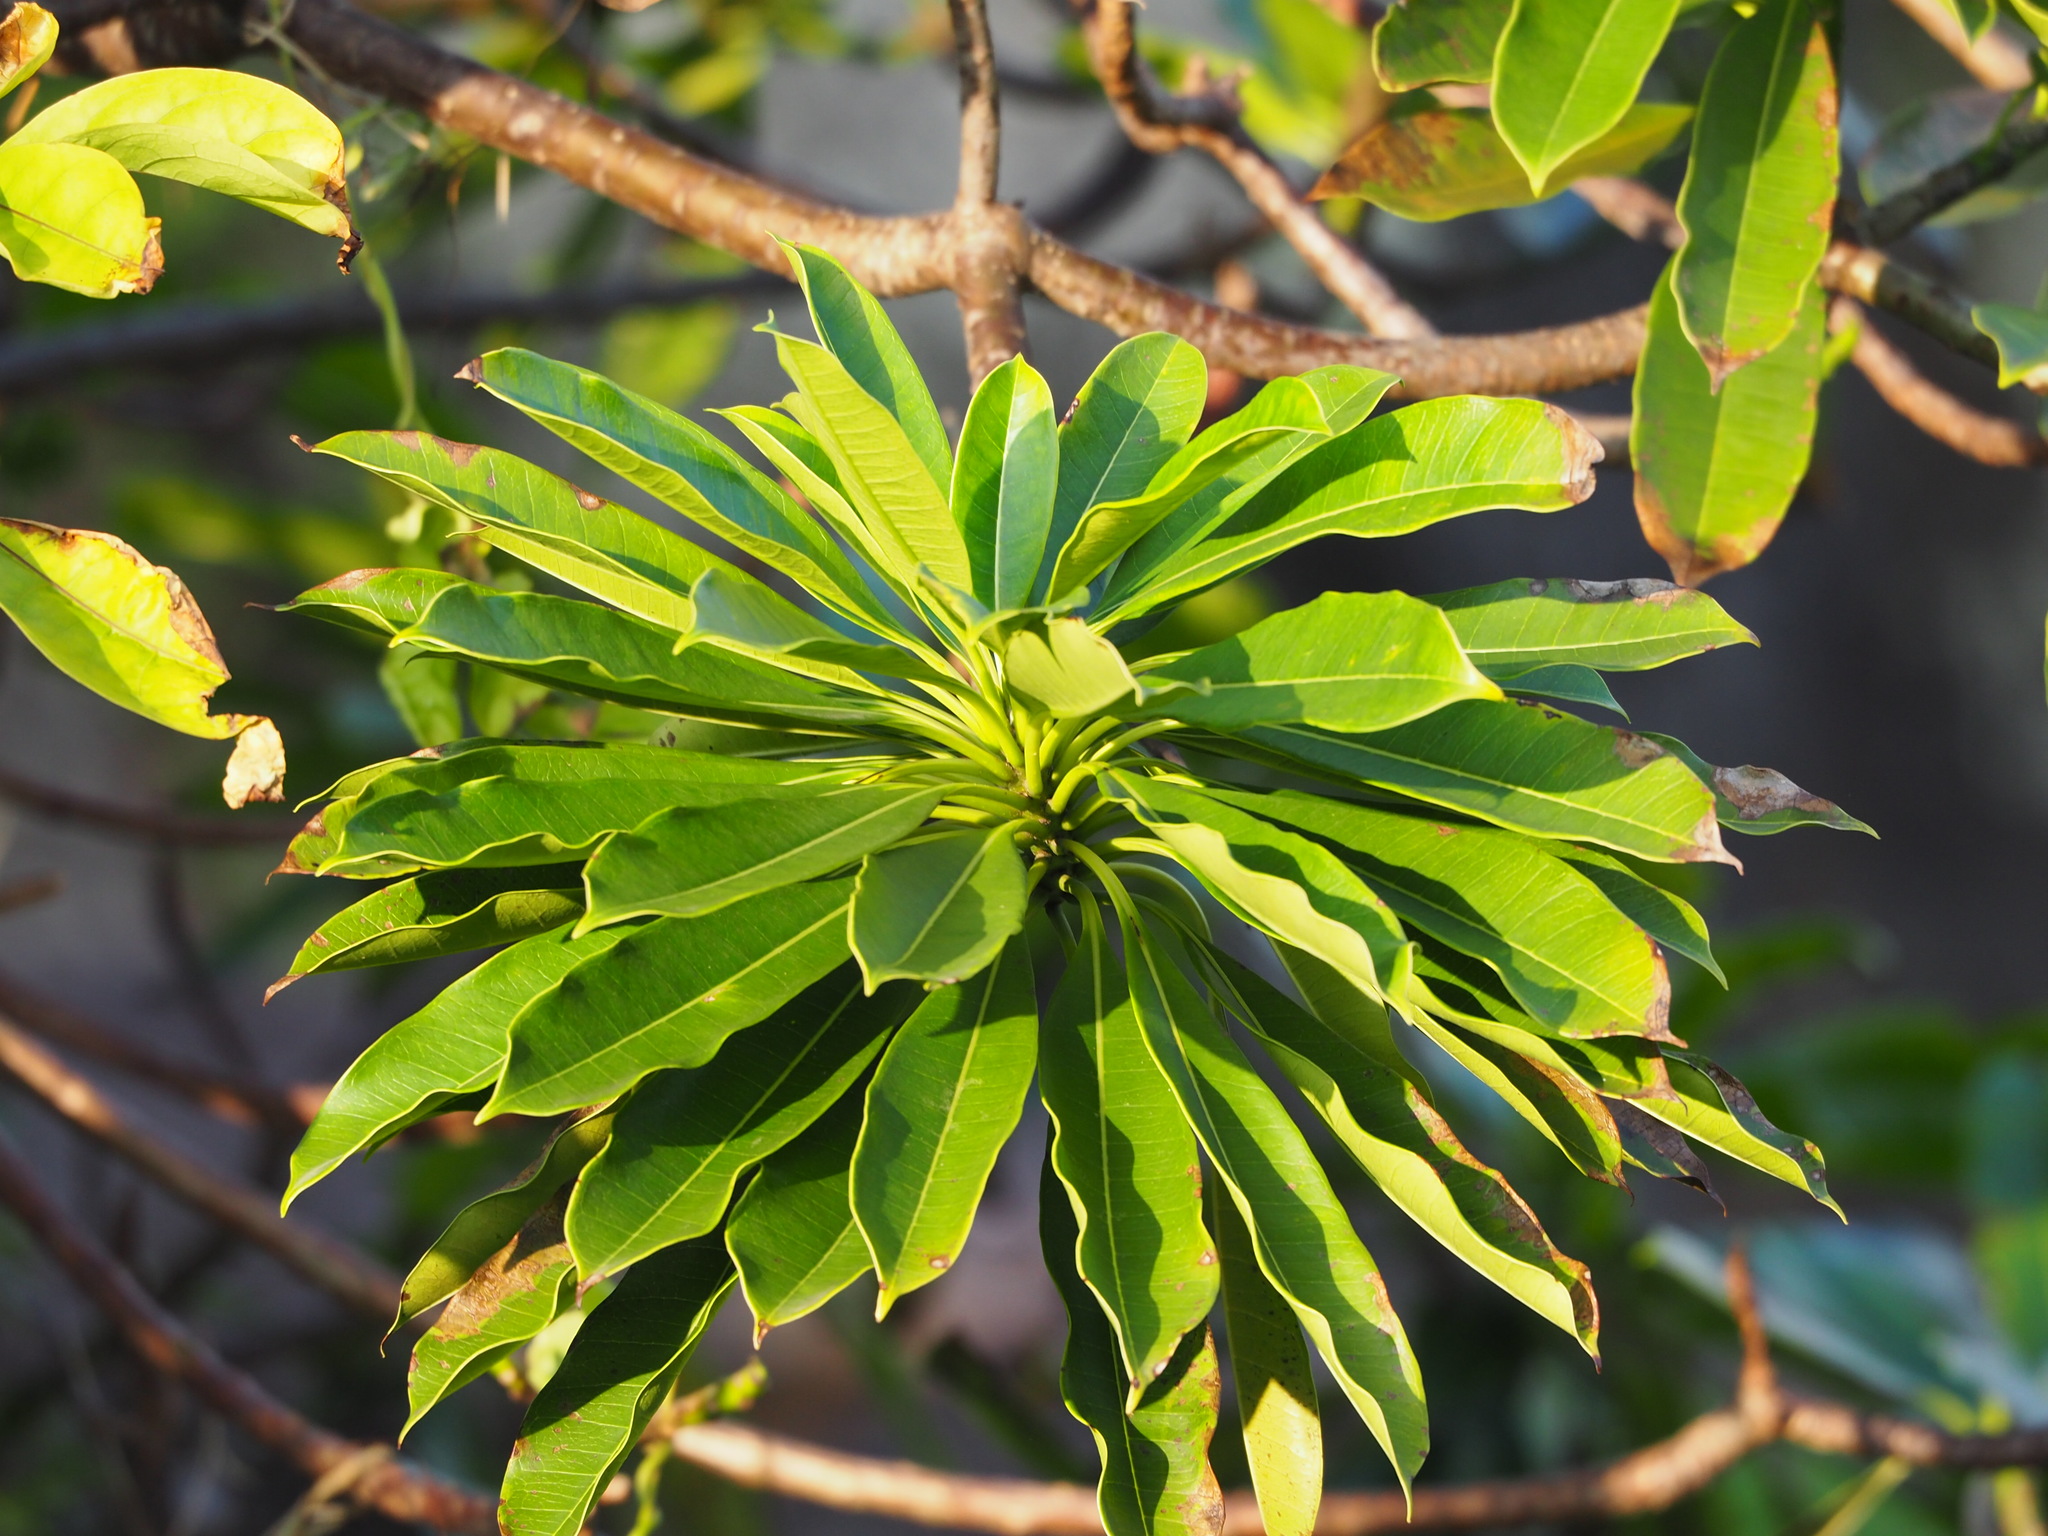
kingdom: Plantae
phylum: Tracheophyta
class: Magnoliopsida
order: Gentianales
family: Apocynaceae
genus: Cerbera
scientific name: Cerbera manghas
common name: Reva
